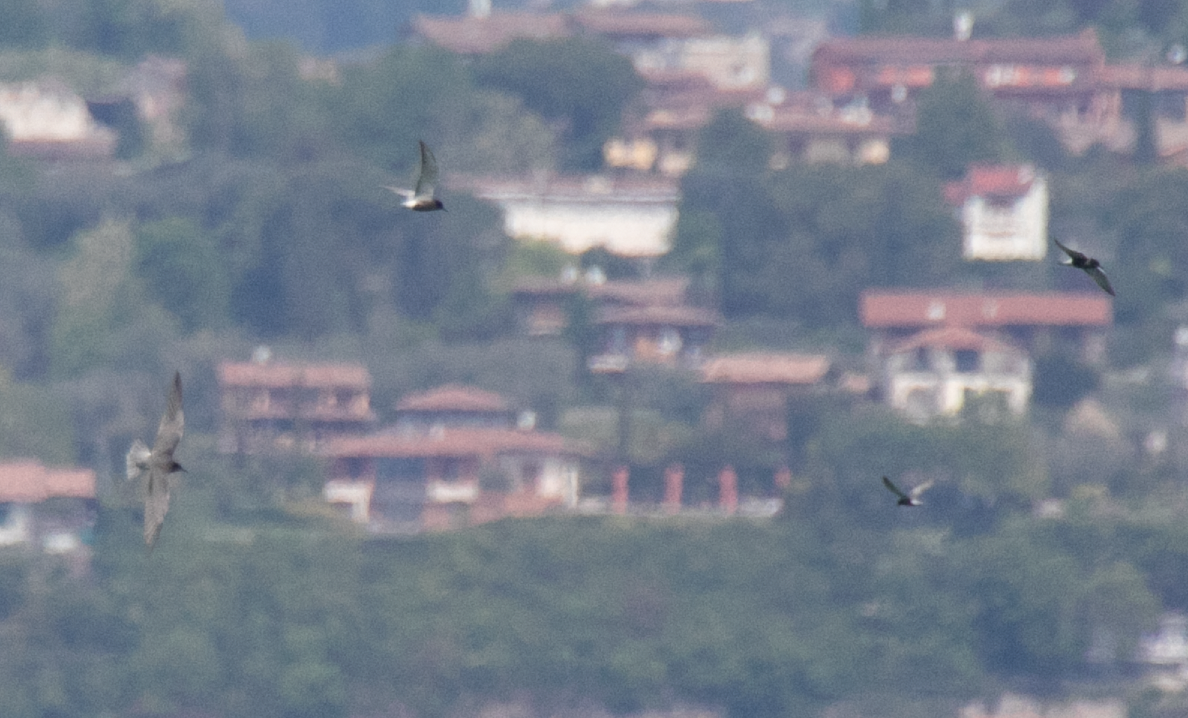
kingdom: Animalia
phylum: Chordata
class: Aves
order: Charadriiformes
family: Laridae
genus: Chlidonias
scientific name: Chlidonias niger
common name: Black tern
